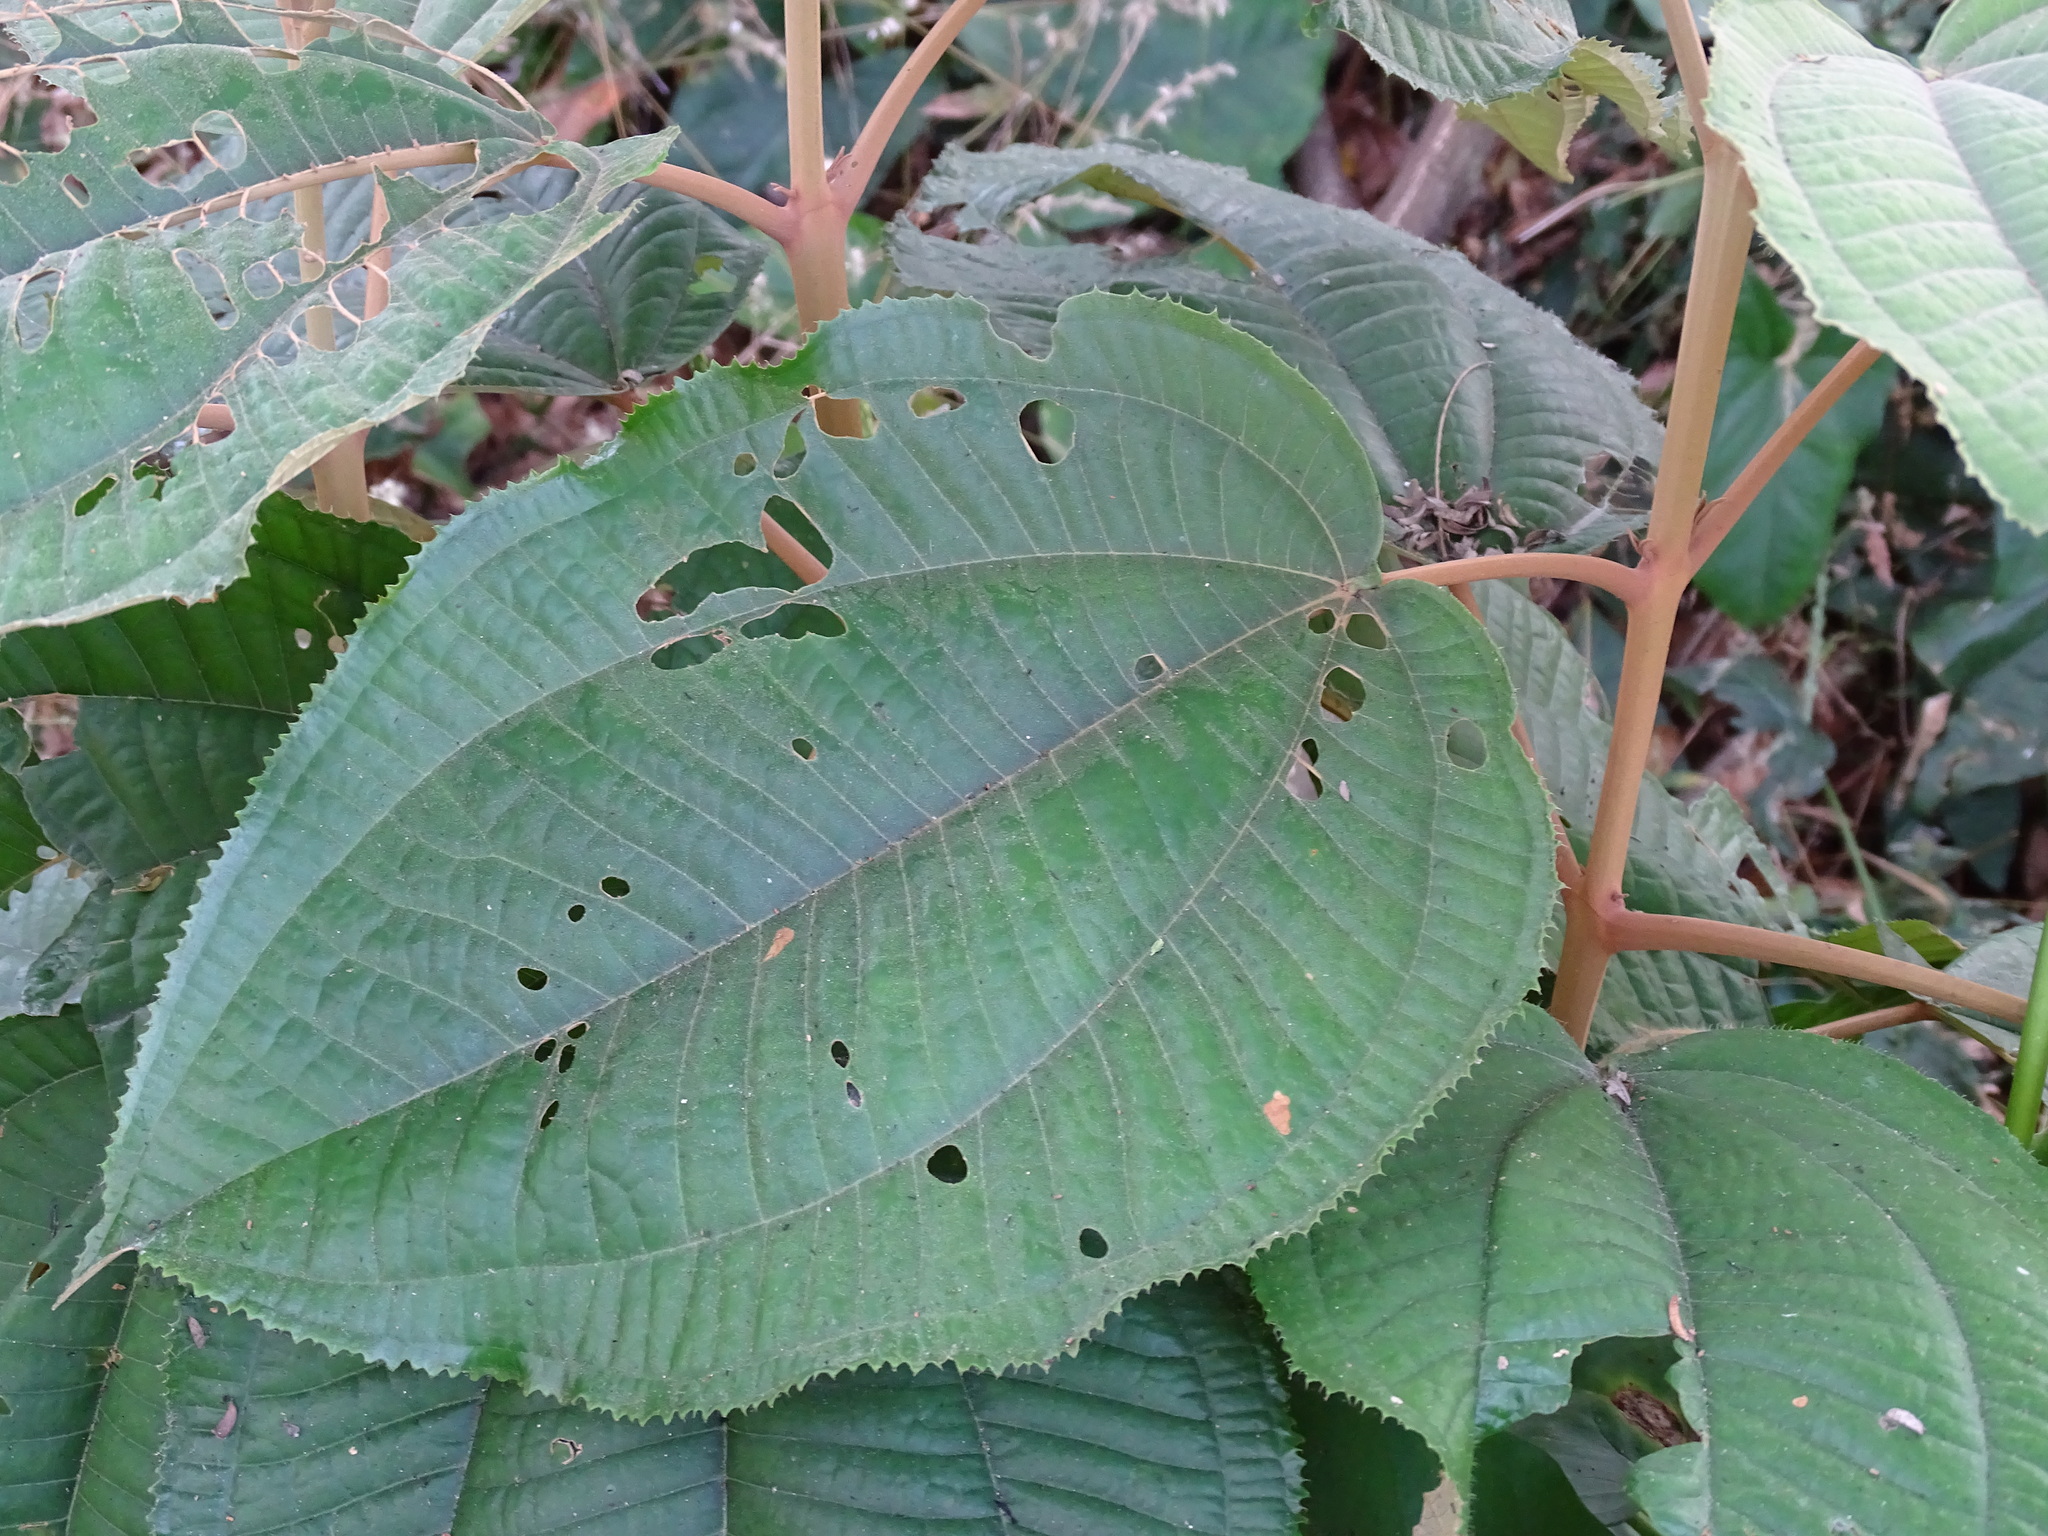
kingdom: Plantae
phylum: Tracheophyta
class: Magnoliopsida
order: Myrtales
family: Melastomataceae
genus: Miconia
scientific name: Miconia argentea
